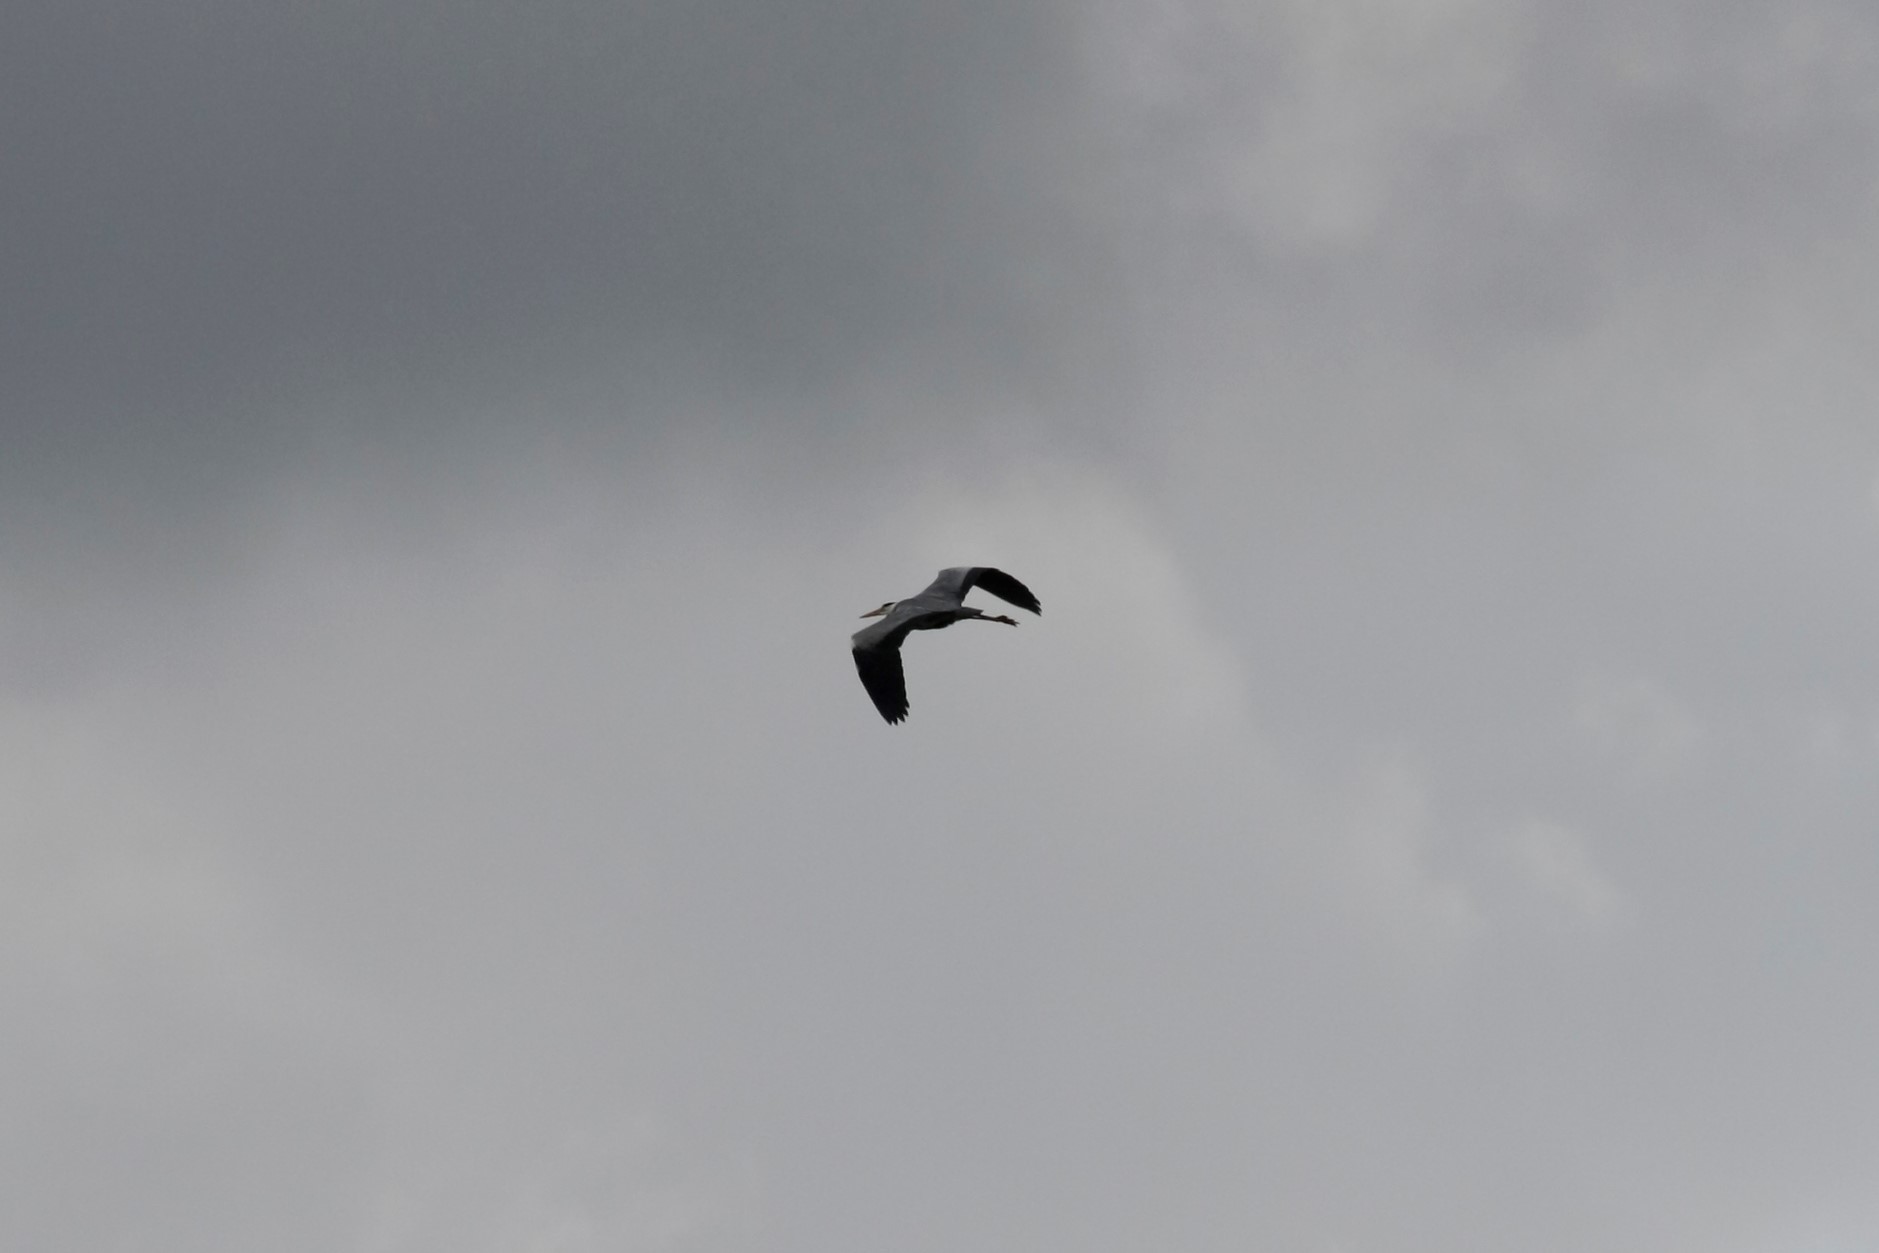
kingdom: Animalia
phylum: Chordata
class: Aves
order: Pelecaniformes
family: Ardeidae
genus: Ardea
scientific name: Ardea cinerea
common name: Grey heron
